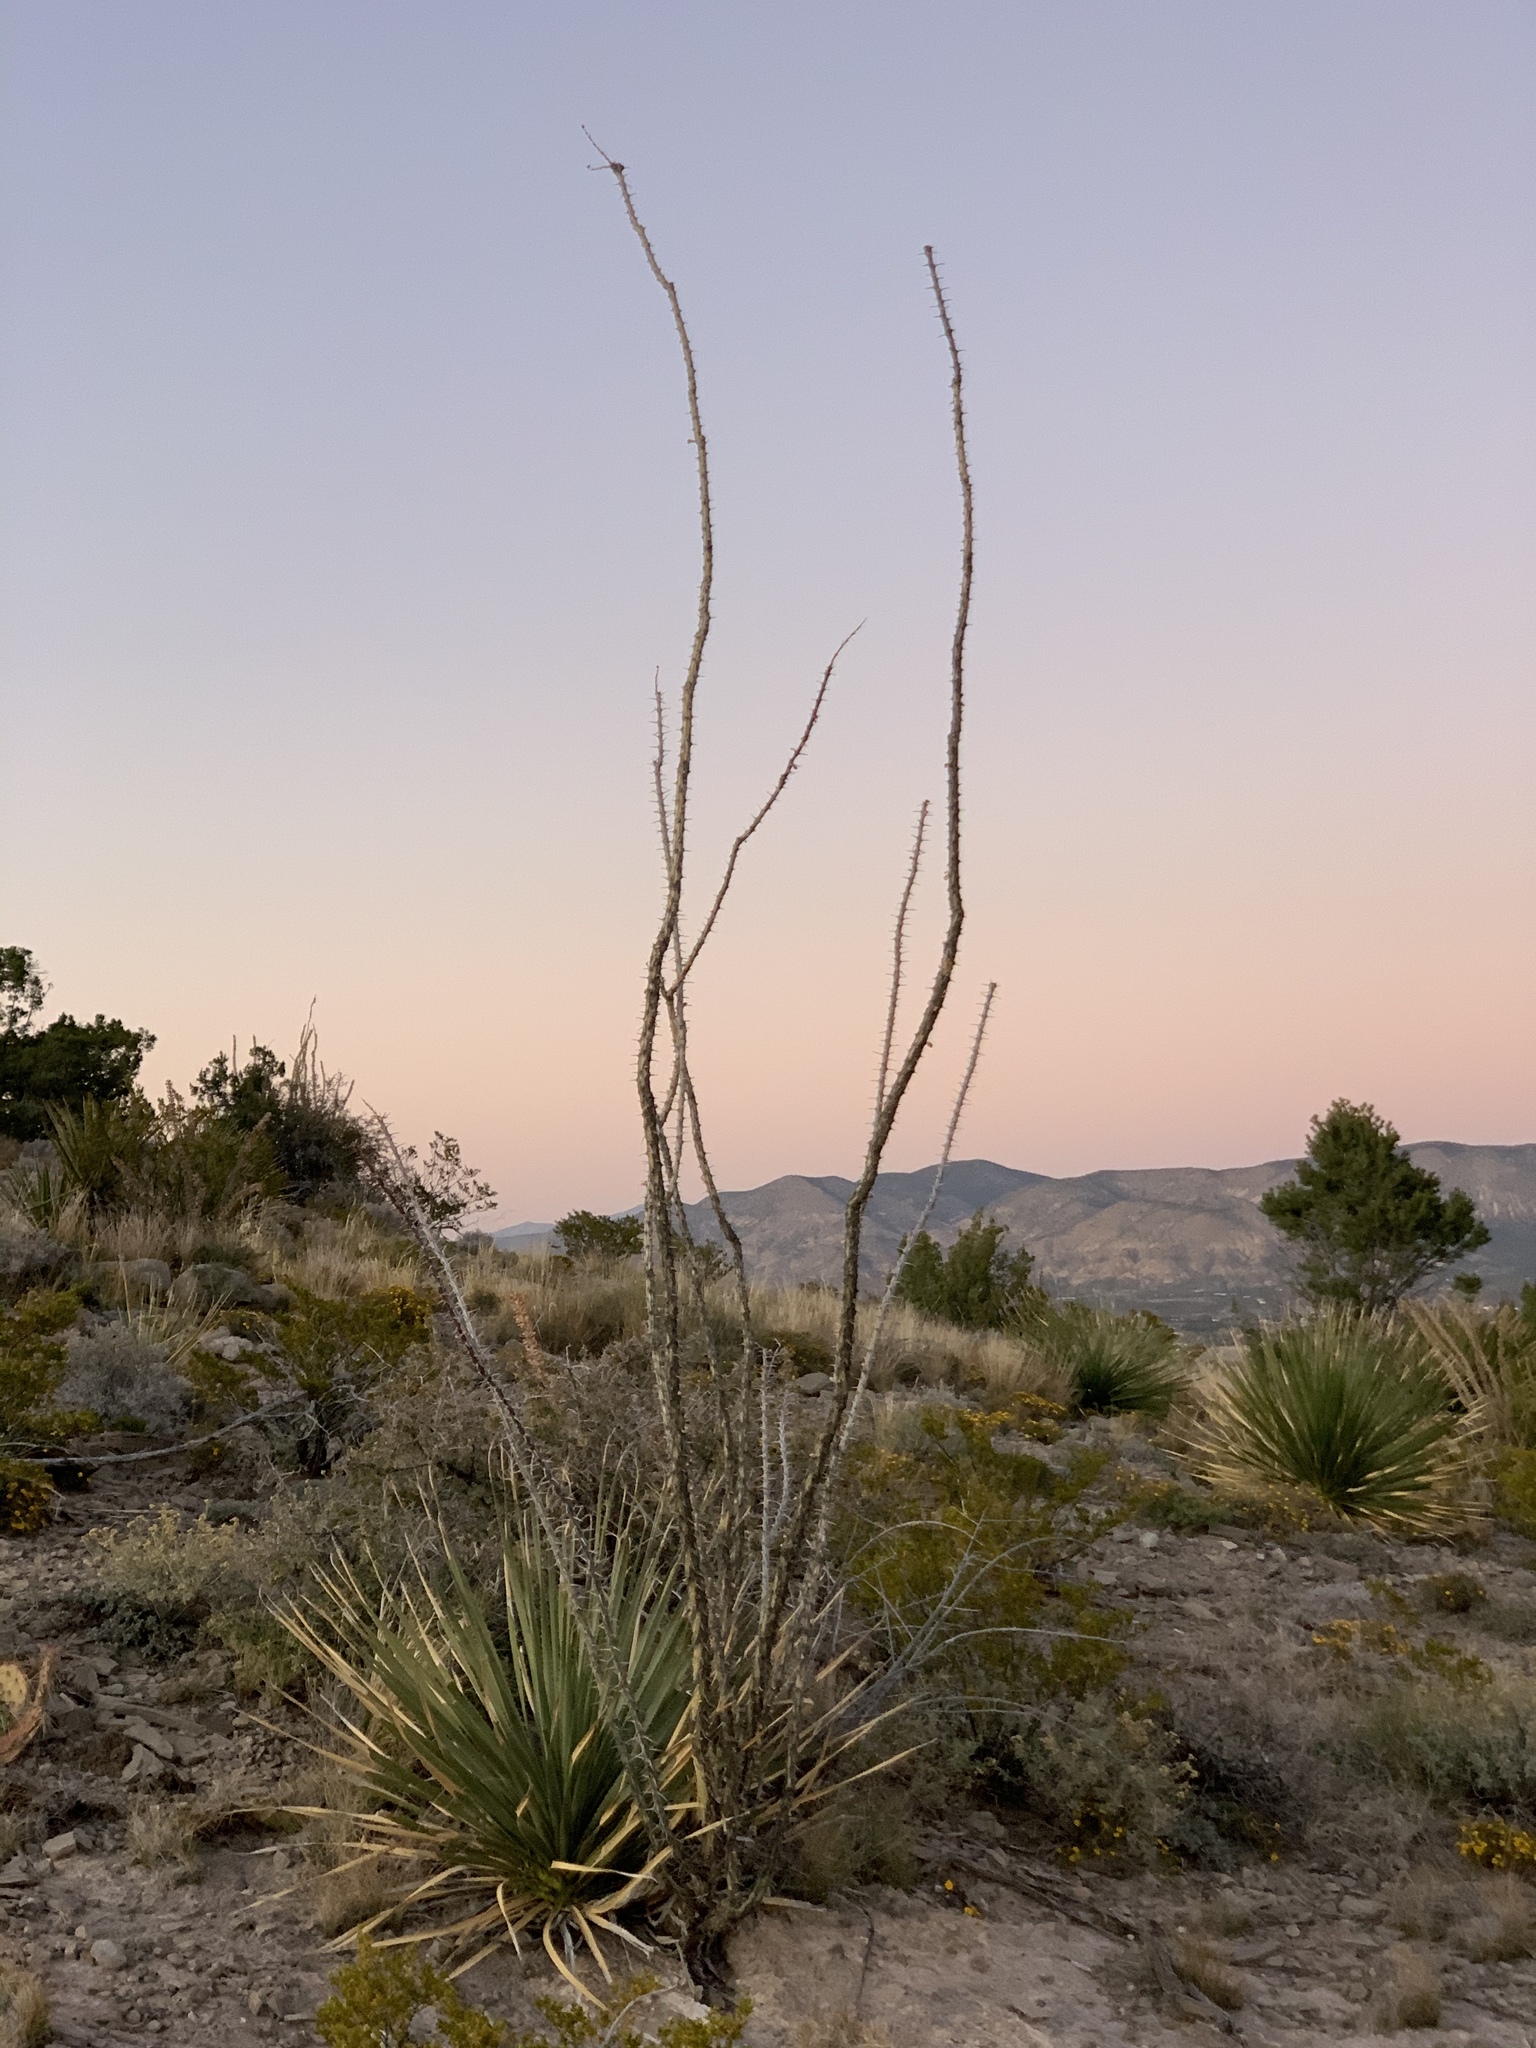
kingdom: Plantae
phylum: Tracheophyta
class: Magnoliopsida
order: Ericales
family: Fouquieriaceae
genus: Fouquieria
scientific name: Fouquieria splendens
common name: Vine-cactus
